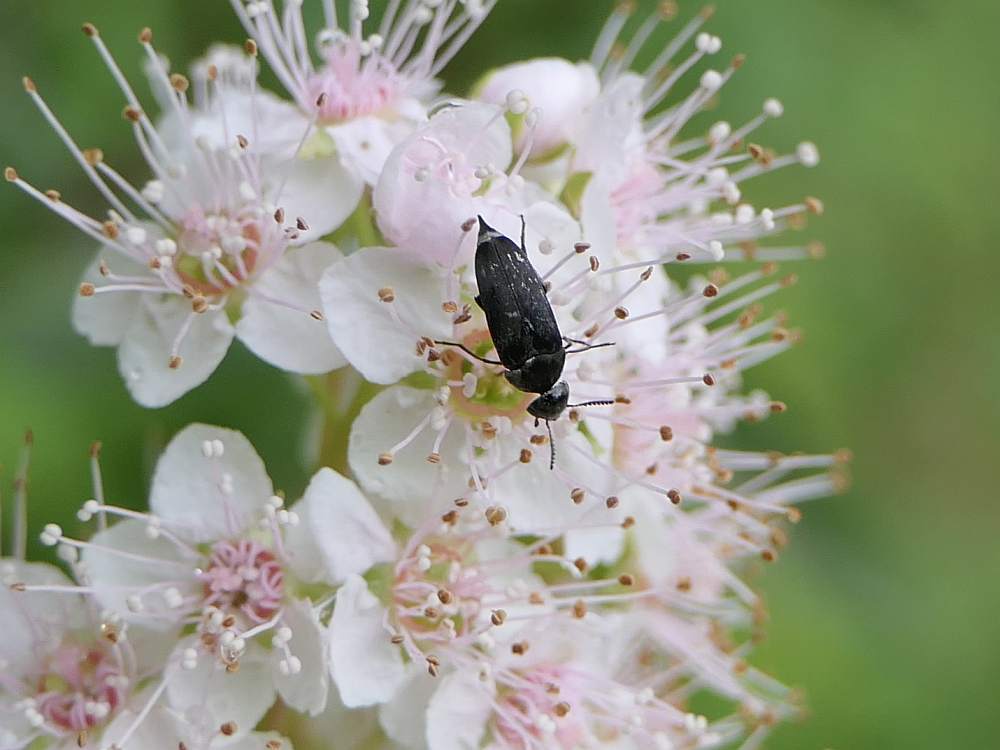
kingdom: Animalia
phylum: Arthropoda
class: Insecta
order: Coleoptera
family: Mordellidae
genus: Mordella
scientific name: Mordella marginata
